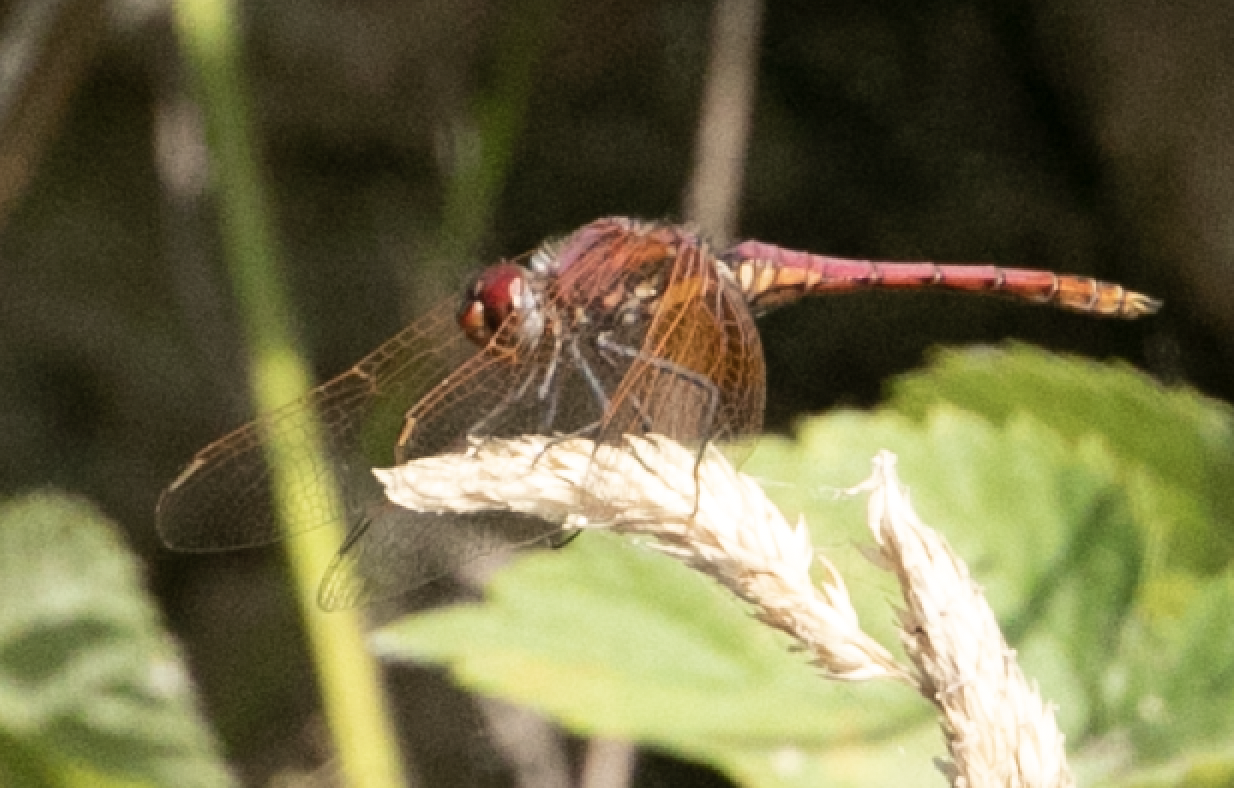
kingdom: Animalia
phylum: Arthropoda
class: Insecta
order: Odonata
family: Libellulidae
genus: Trithemis
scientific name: Trithemis annulata
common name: Violet dropwing
